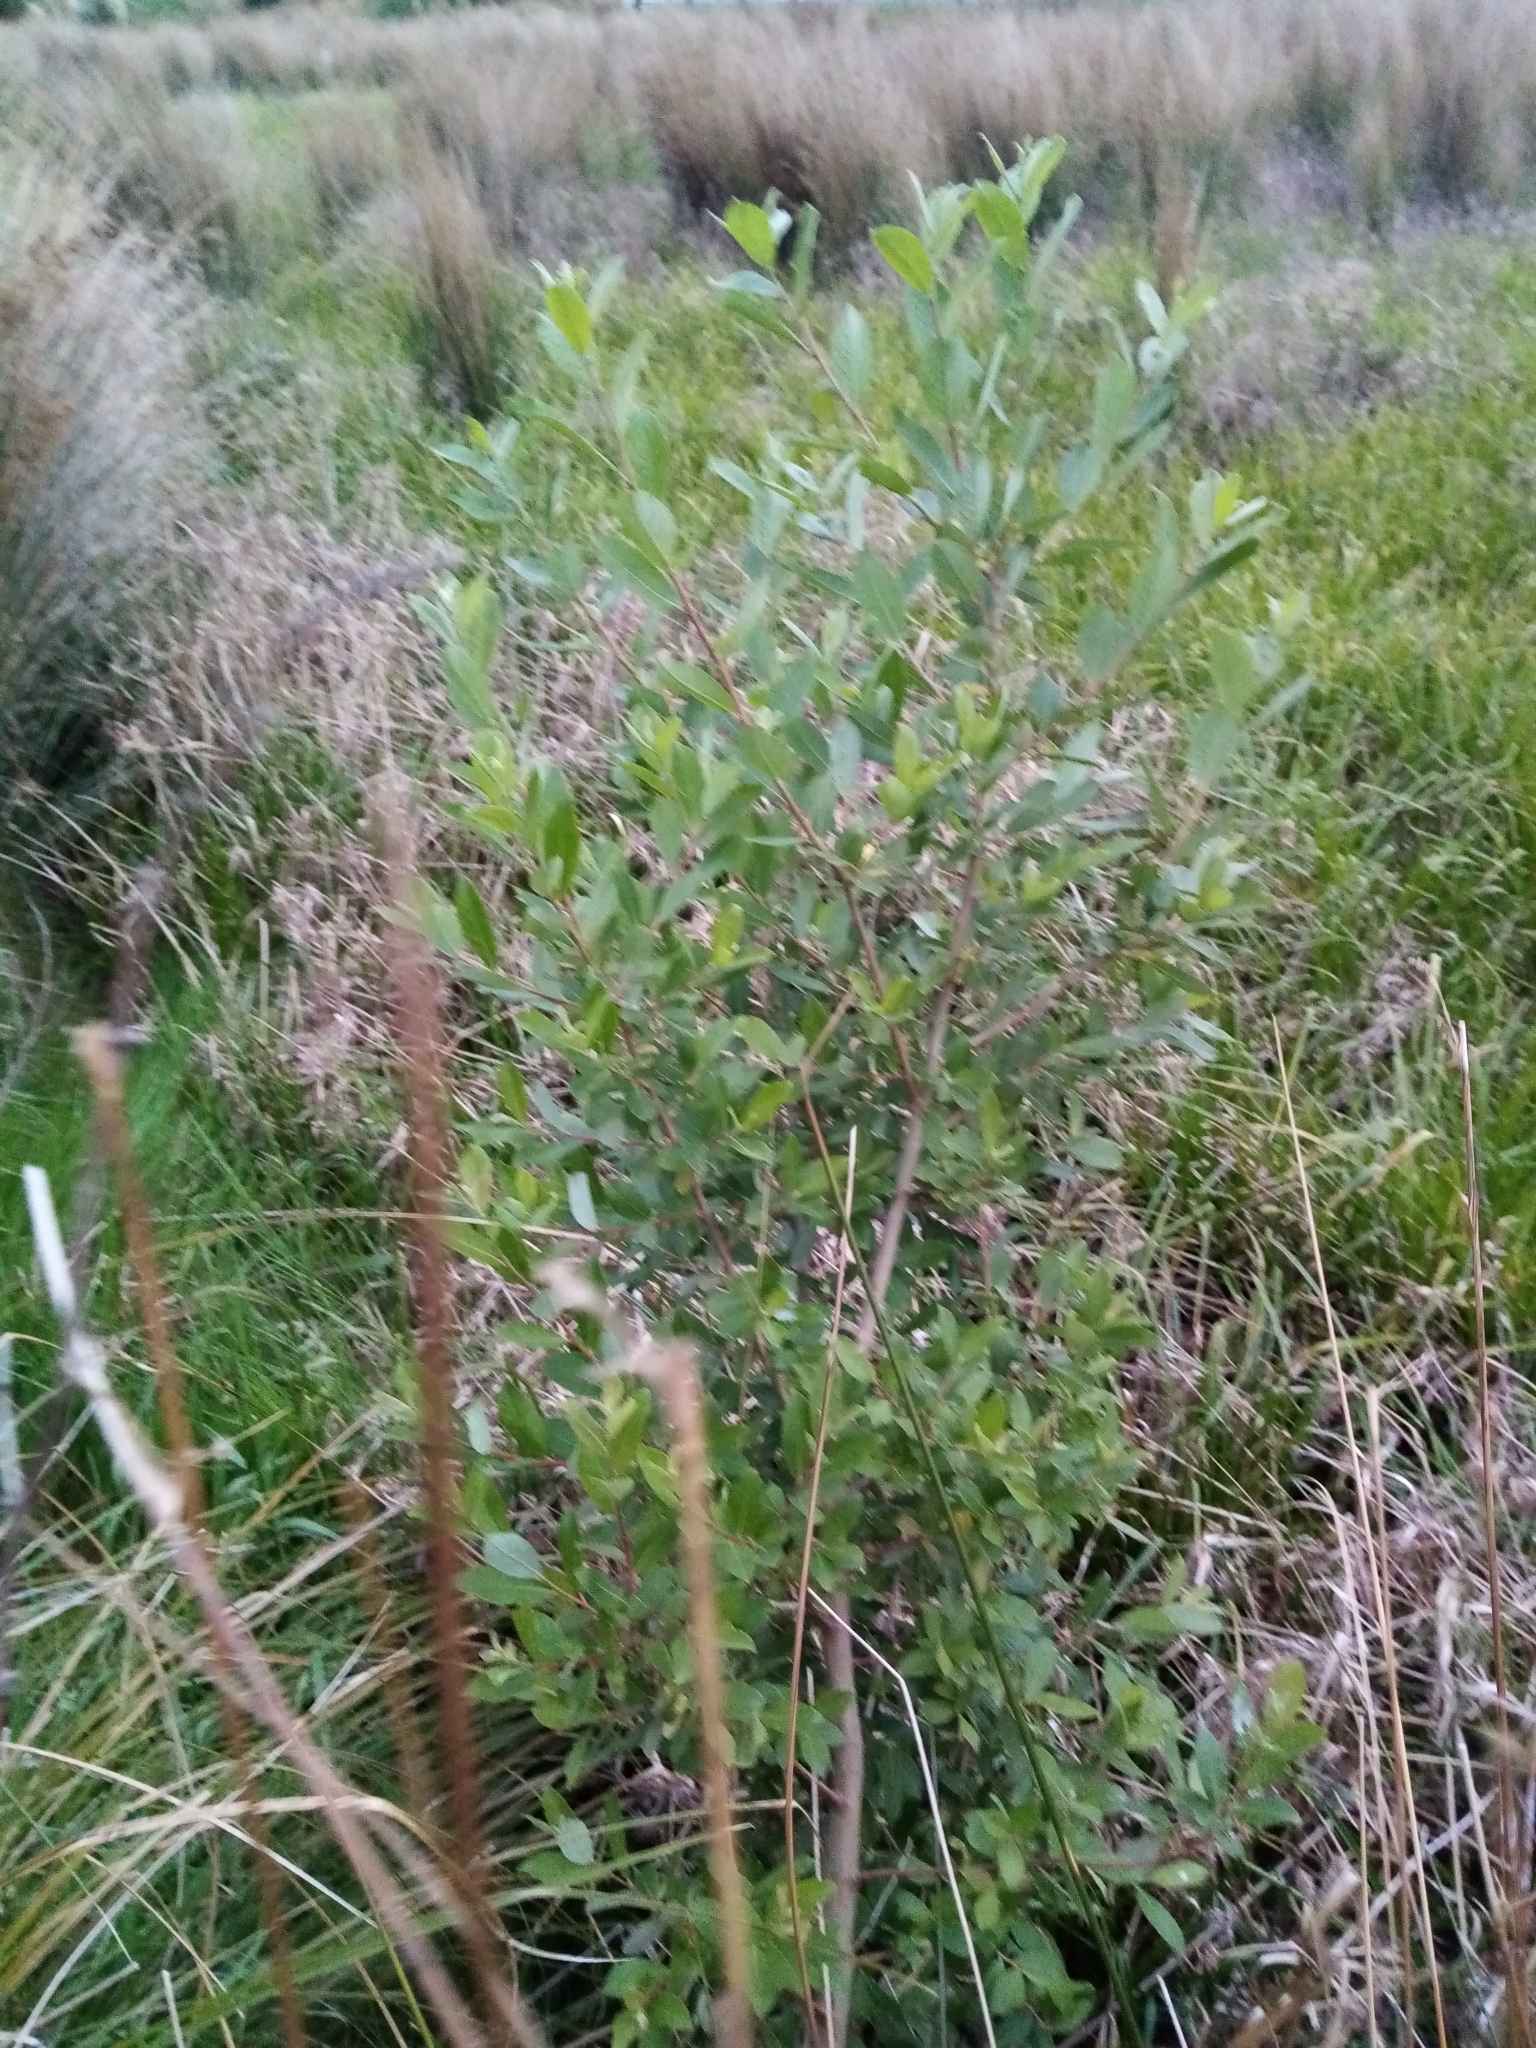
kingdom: Plantae
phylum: Tracheophyta
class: Magnoliopsida
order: Malpighiales
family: Salicaceae
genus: Salix
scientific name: Salix cinerea
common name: Common sallow
